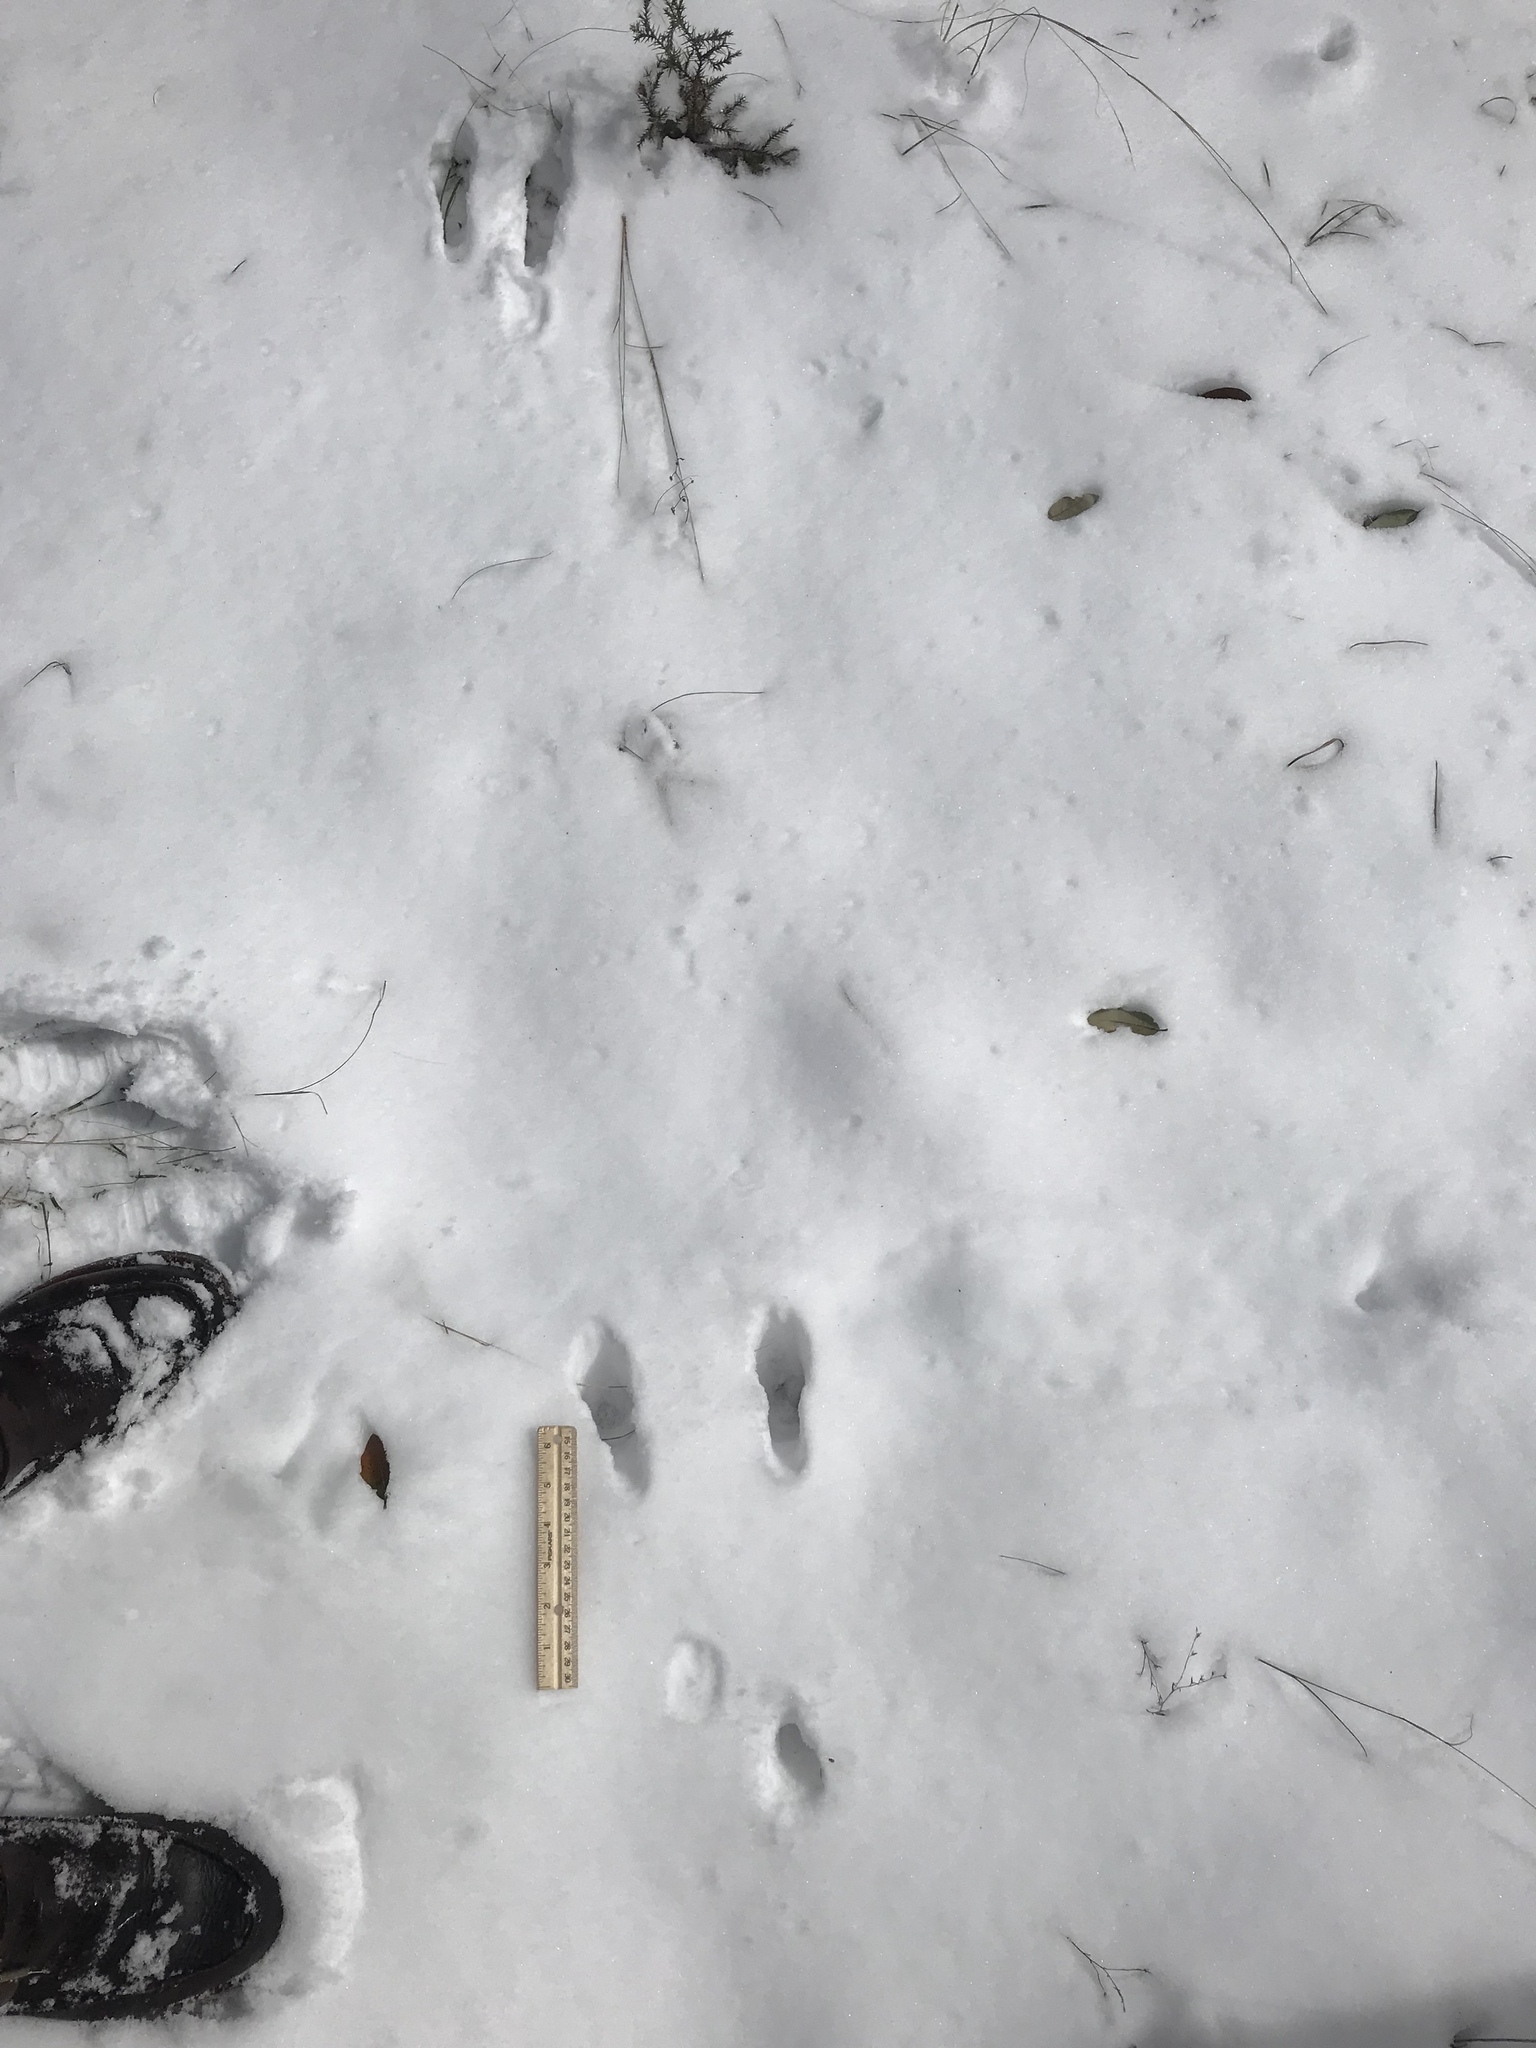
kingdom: Animalia
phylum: Chordata
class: Mammalia
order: Lagomorpha
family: Leporidae
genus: Lepus
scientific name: Lepus californicus
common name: Black-tailed jackrabbit
